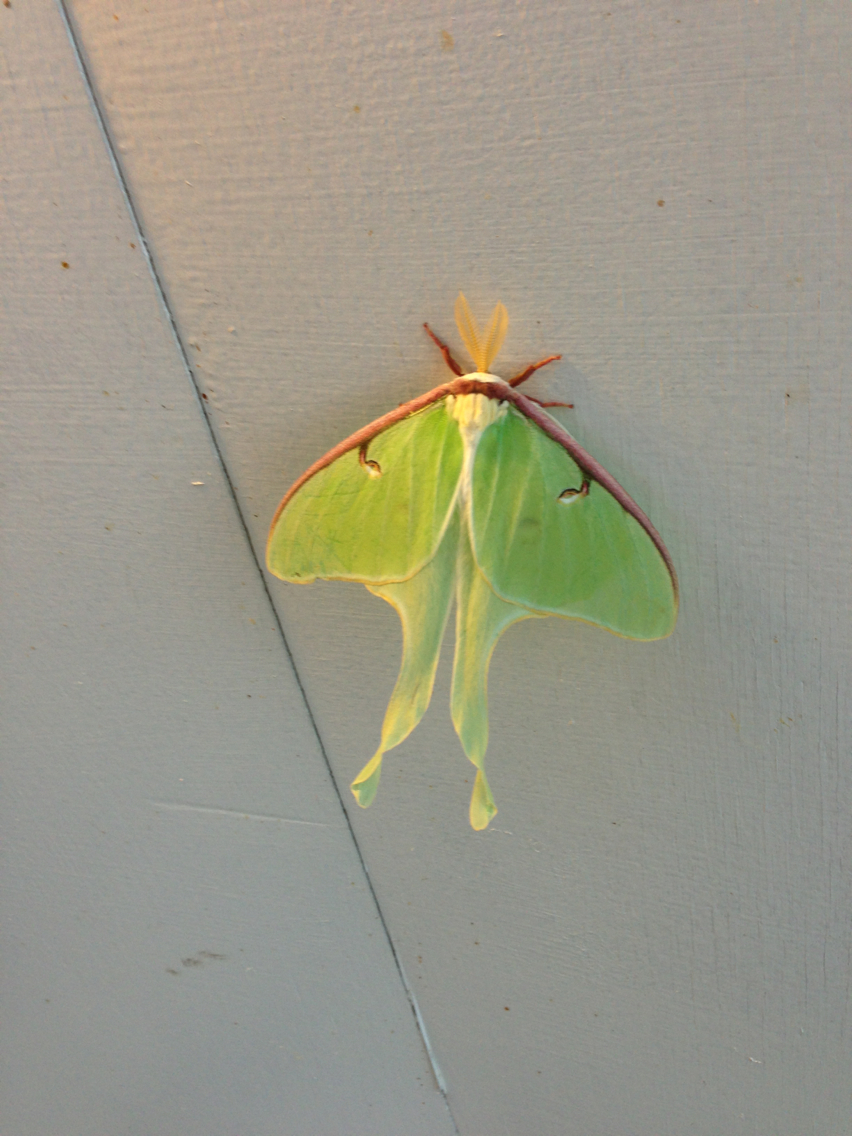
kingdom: Animalia
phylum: Arthropoda
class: Insecta
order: Lepidoptera
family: Saturniidae
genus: Actias
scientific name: Actias luna
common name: Luna moth
